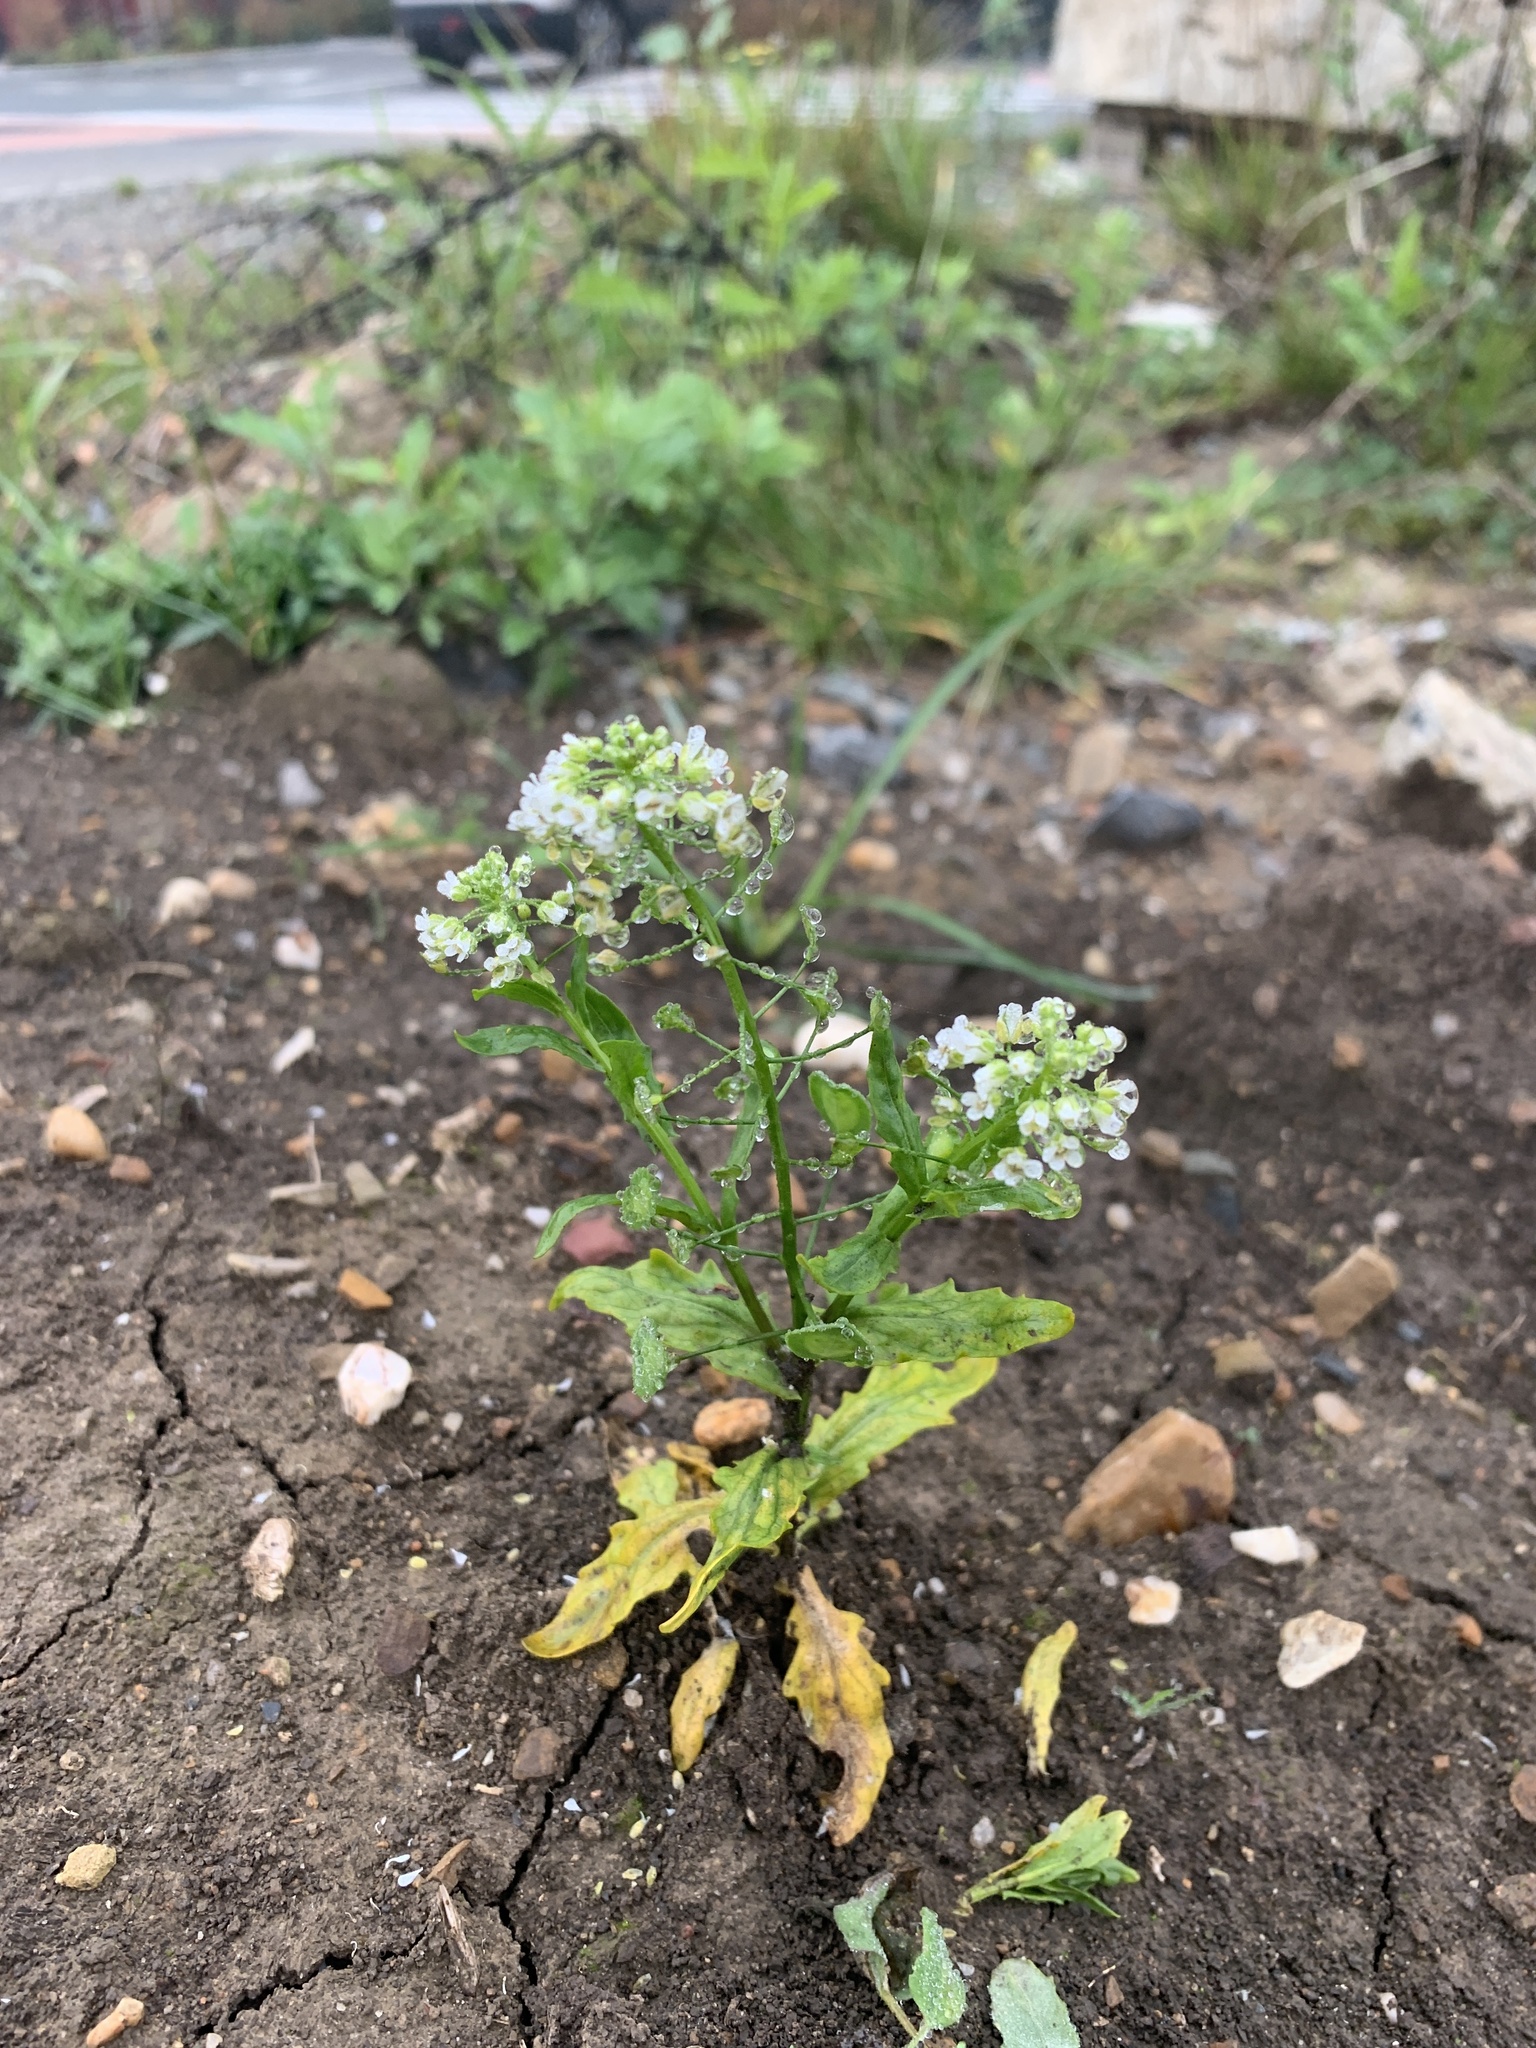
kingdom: Plantae
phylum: Tracheophyta
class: Magnoliopsida
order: Brassicales
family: Brassicaceae
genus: Thlaspi
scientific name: Thlaspi arvense
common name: Field pennycress
